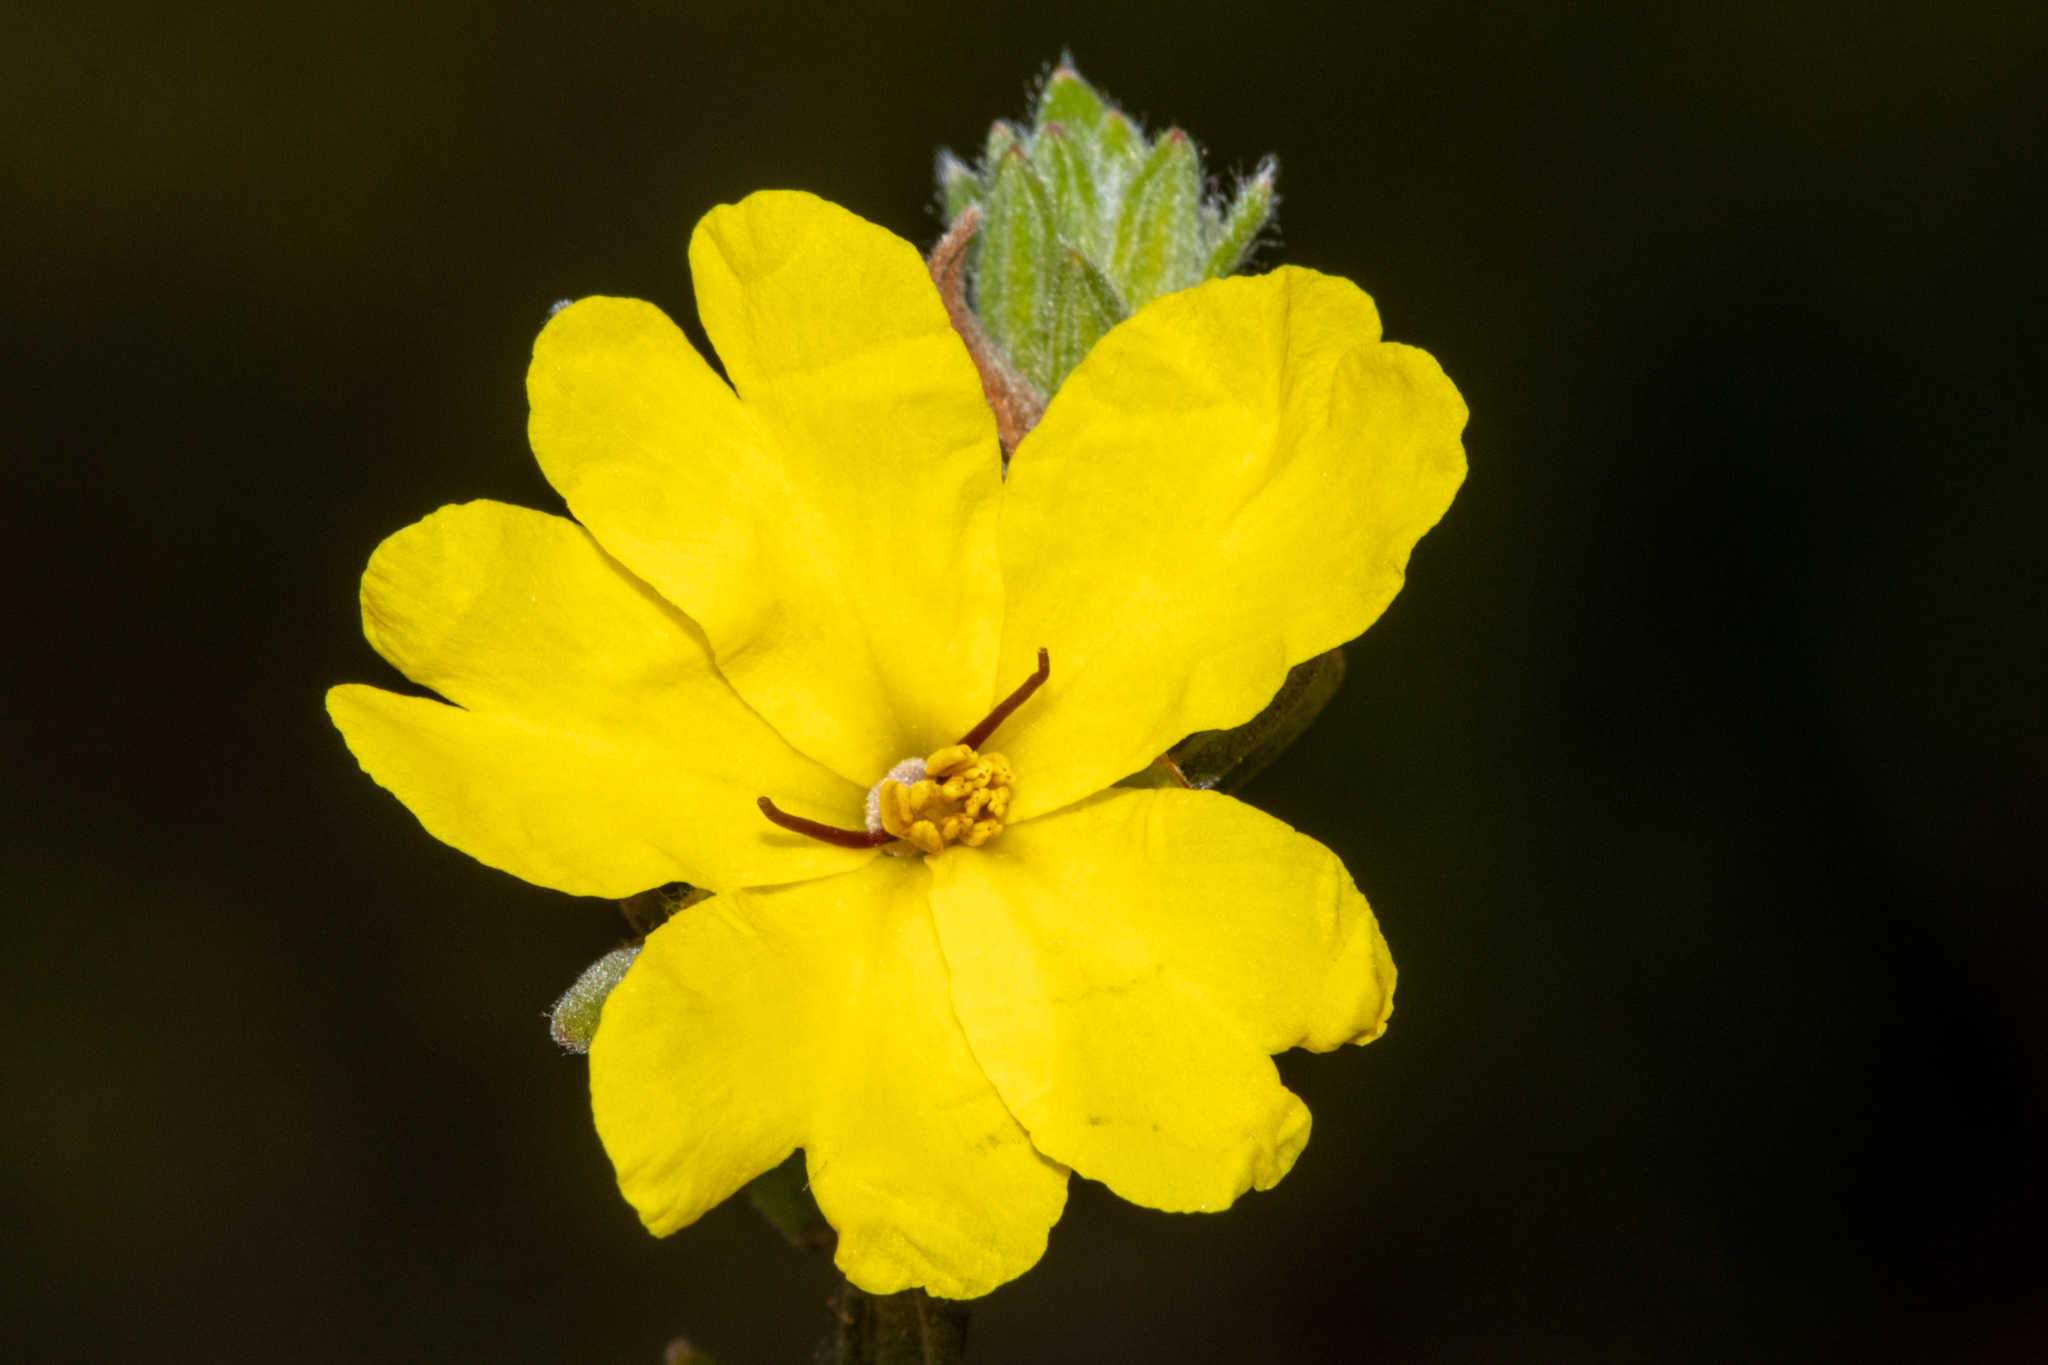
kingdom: Plantae
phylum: Tracheophyta
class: Magnoliopsida
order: Dilleniales
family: Dilleniaceae
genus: Hibbertia
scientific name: Hibbertia crinita
